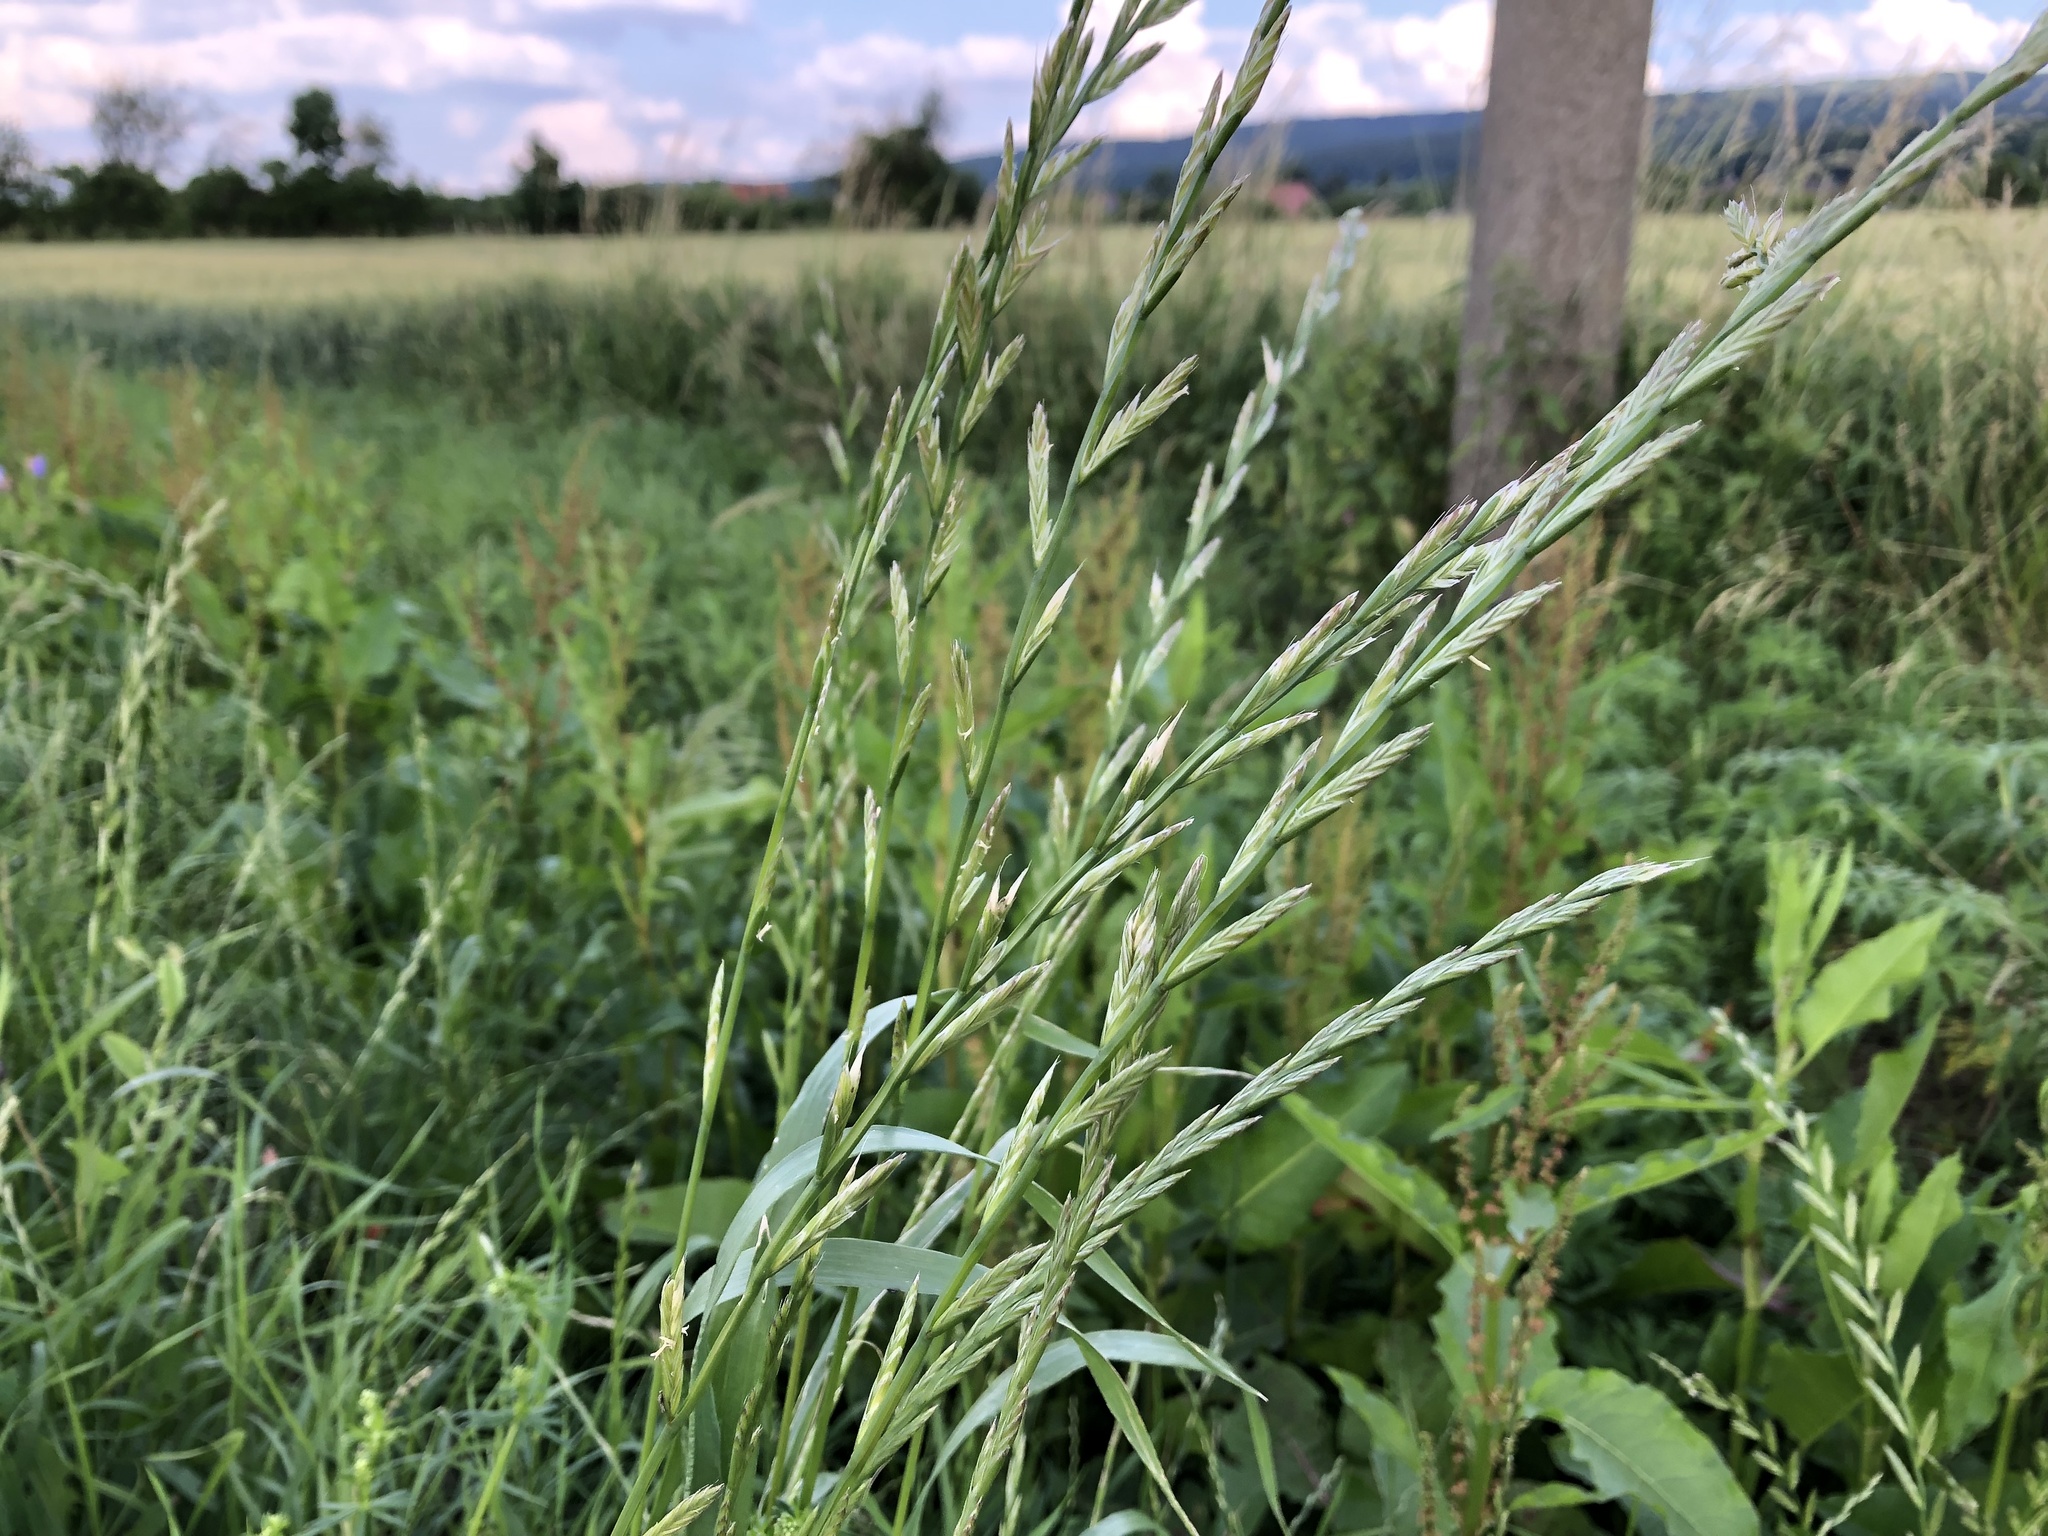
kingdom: Plantae
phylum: Tracheophyta
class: Liliopsida
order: Poales
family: Poaceae
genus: Lolium
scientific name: Lolium multiflorum
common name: Annual ryegrass
